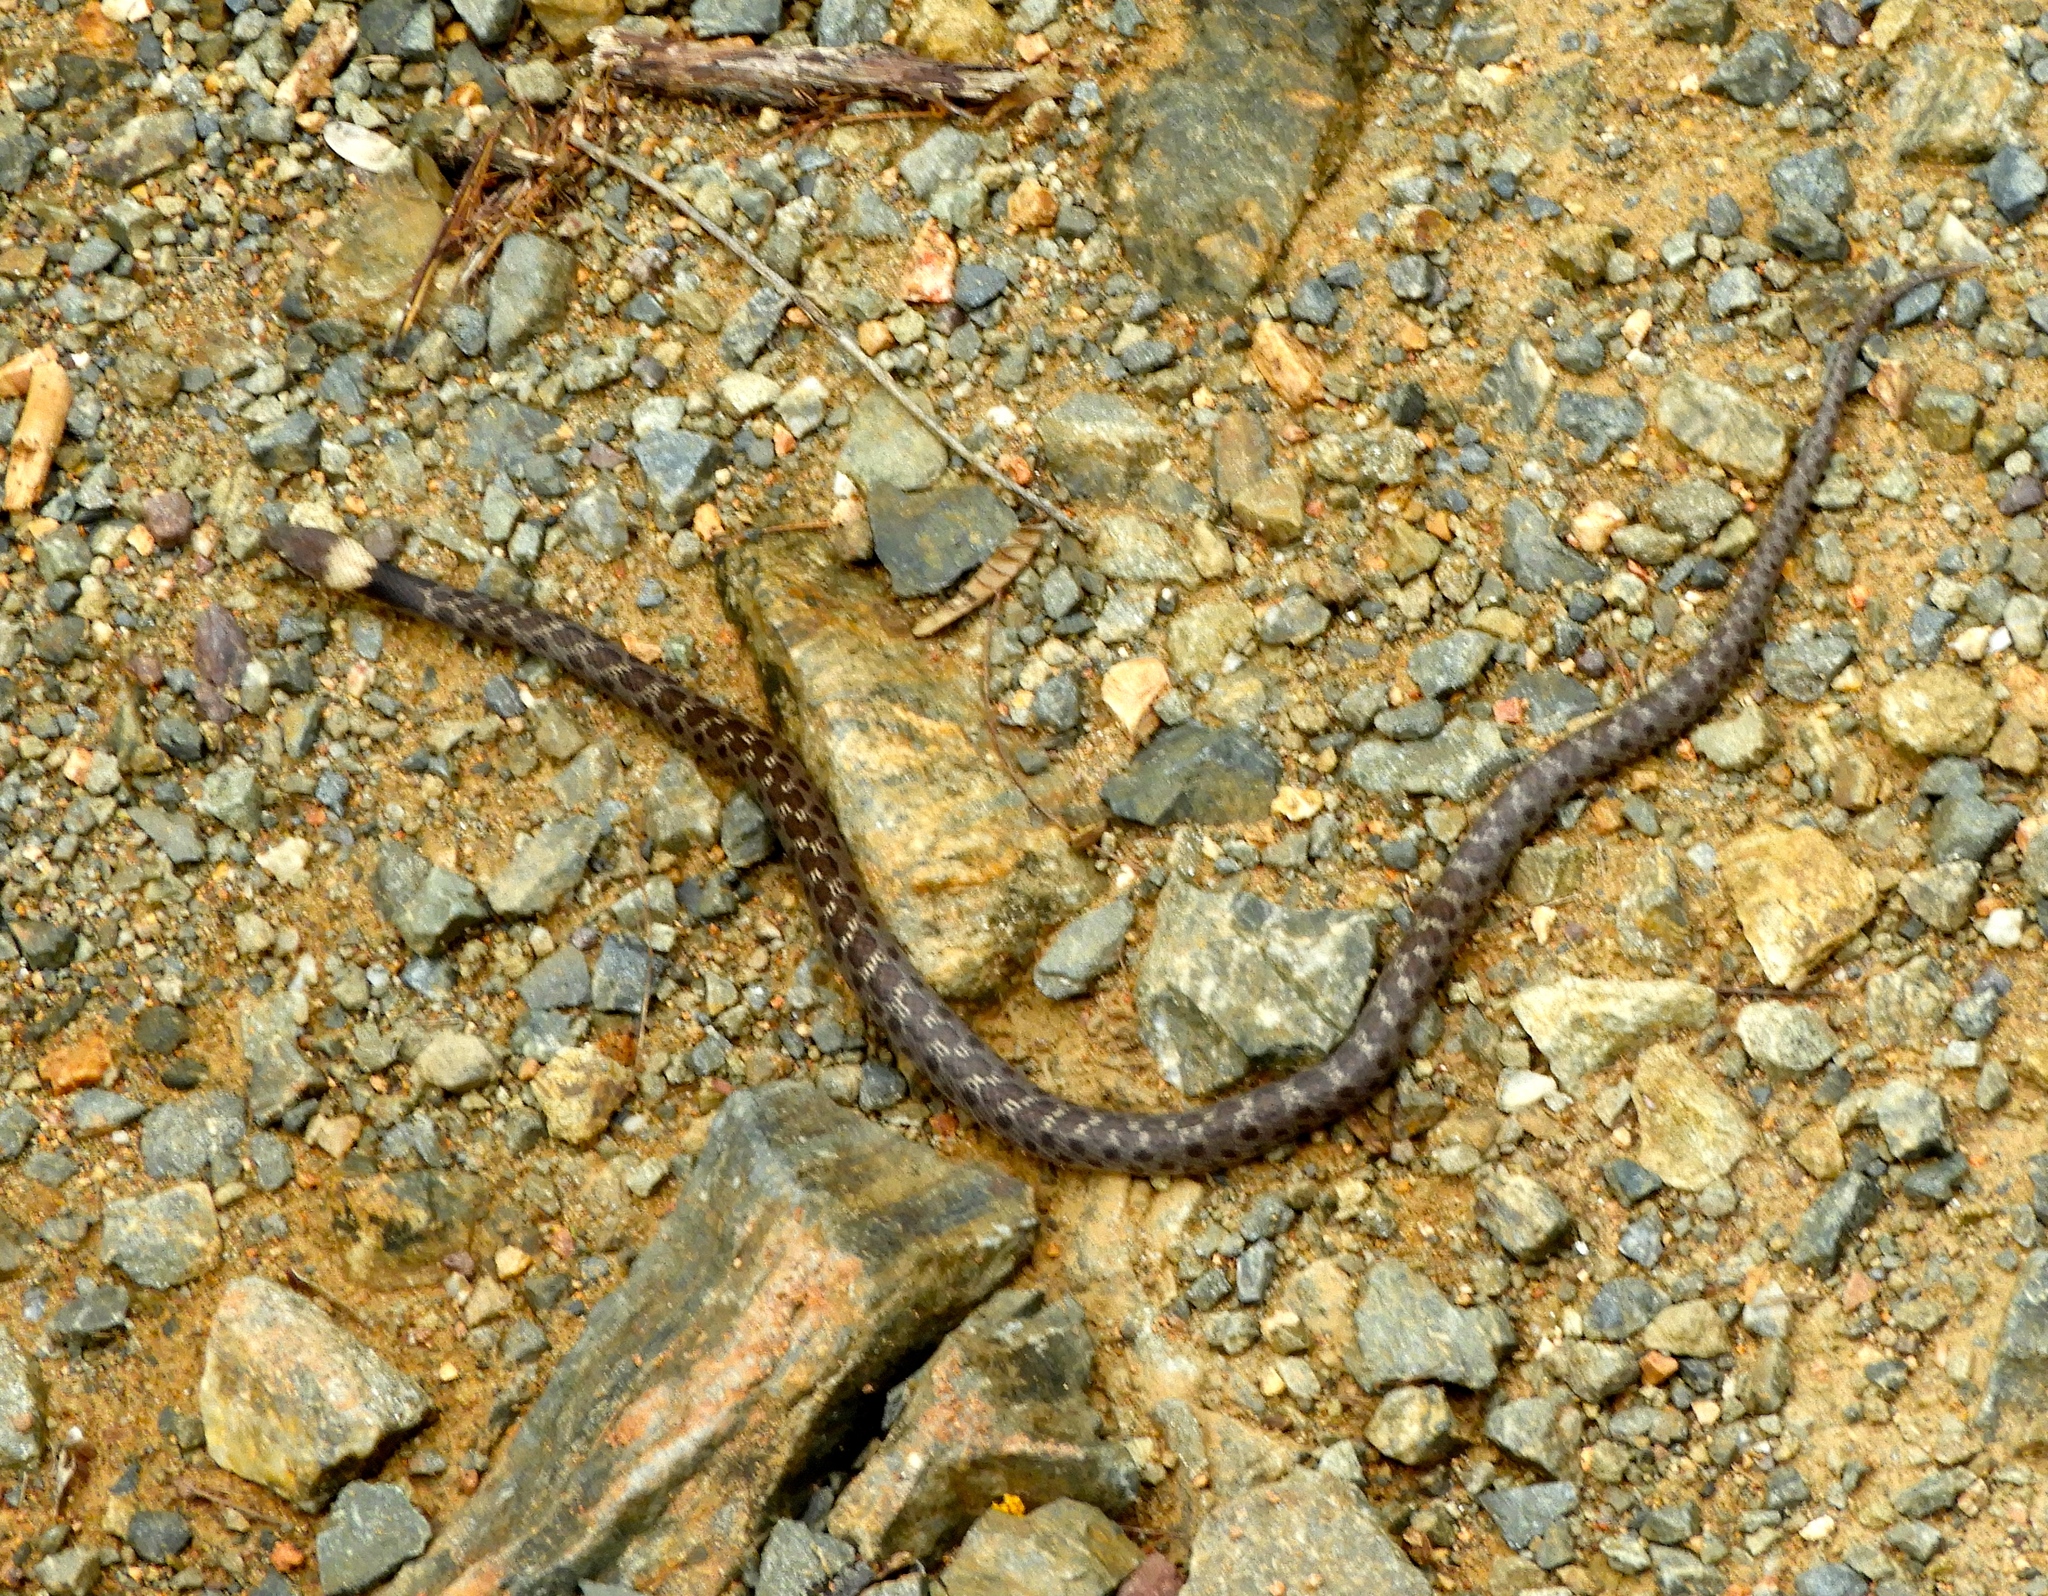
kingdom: Animalia
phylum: Chordata
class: Squamata
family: Colubridae
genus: Hypsiglena
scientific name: Hypsiglena torquata
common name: Night snake
